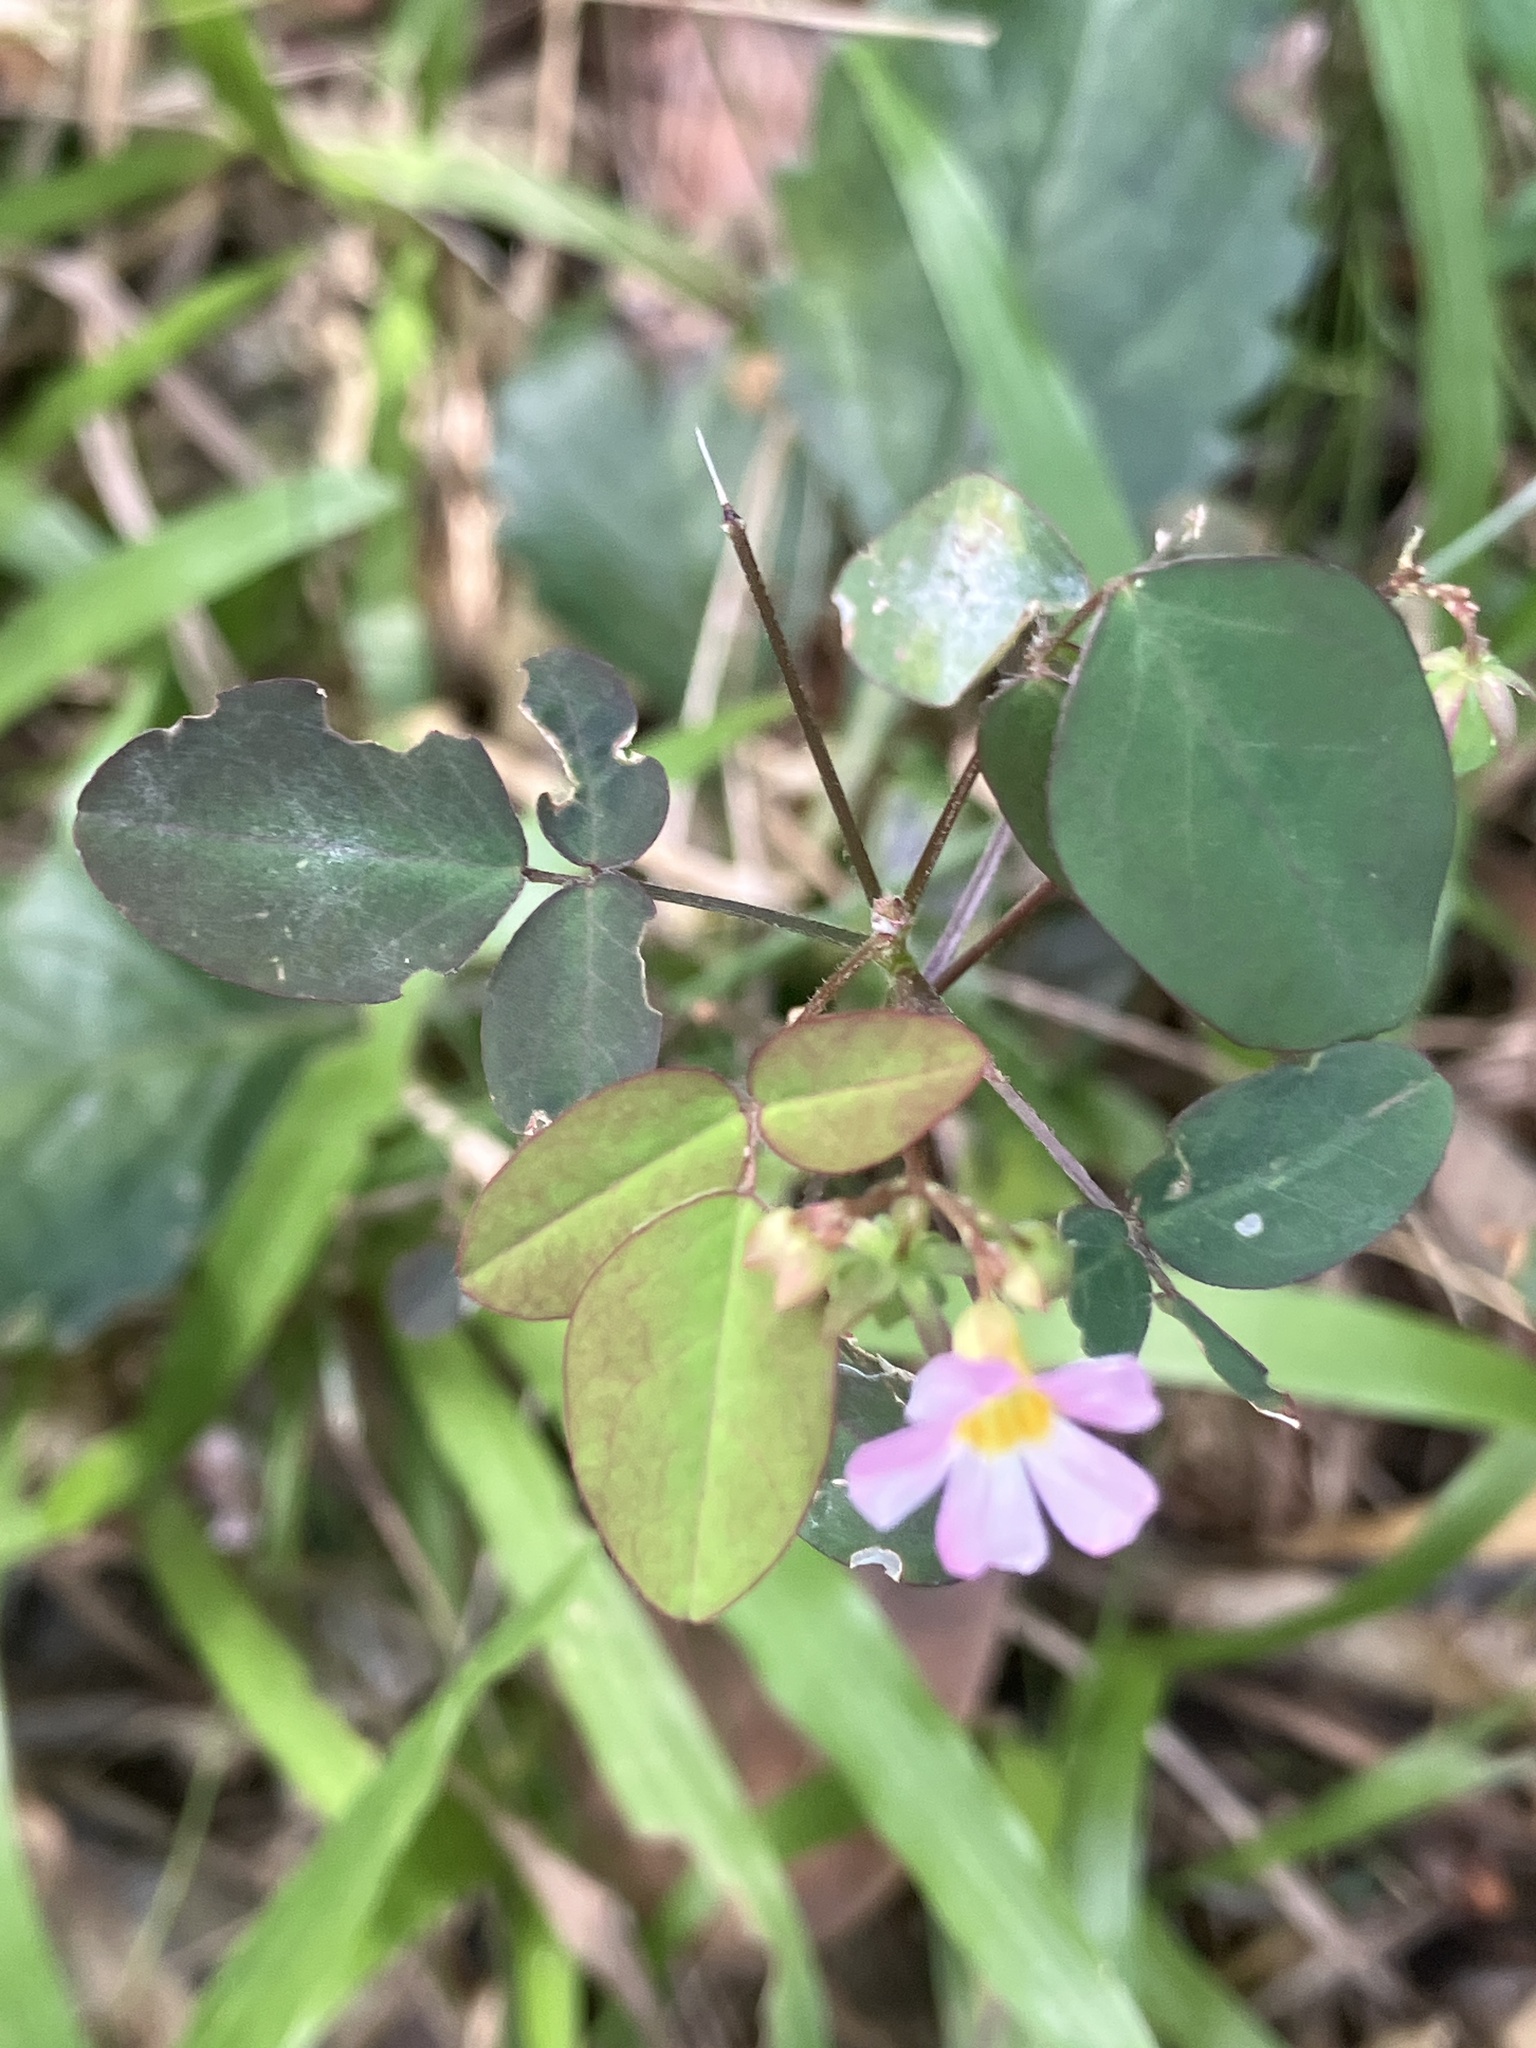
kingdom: Plantae
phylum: Tracheophyta
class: Magnoliopsida
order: Oxalidales
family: Oxalidaceae
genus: Oxalis
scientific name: Oxalis barrelieri
